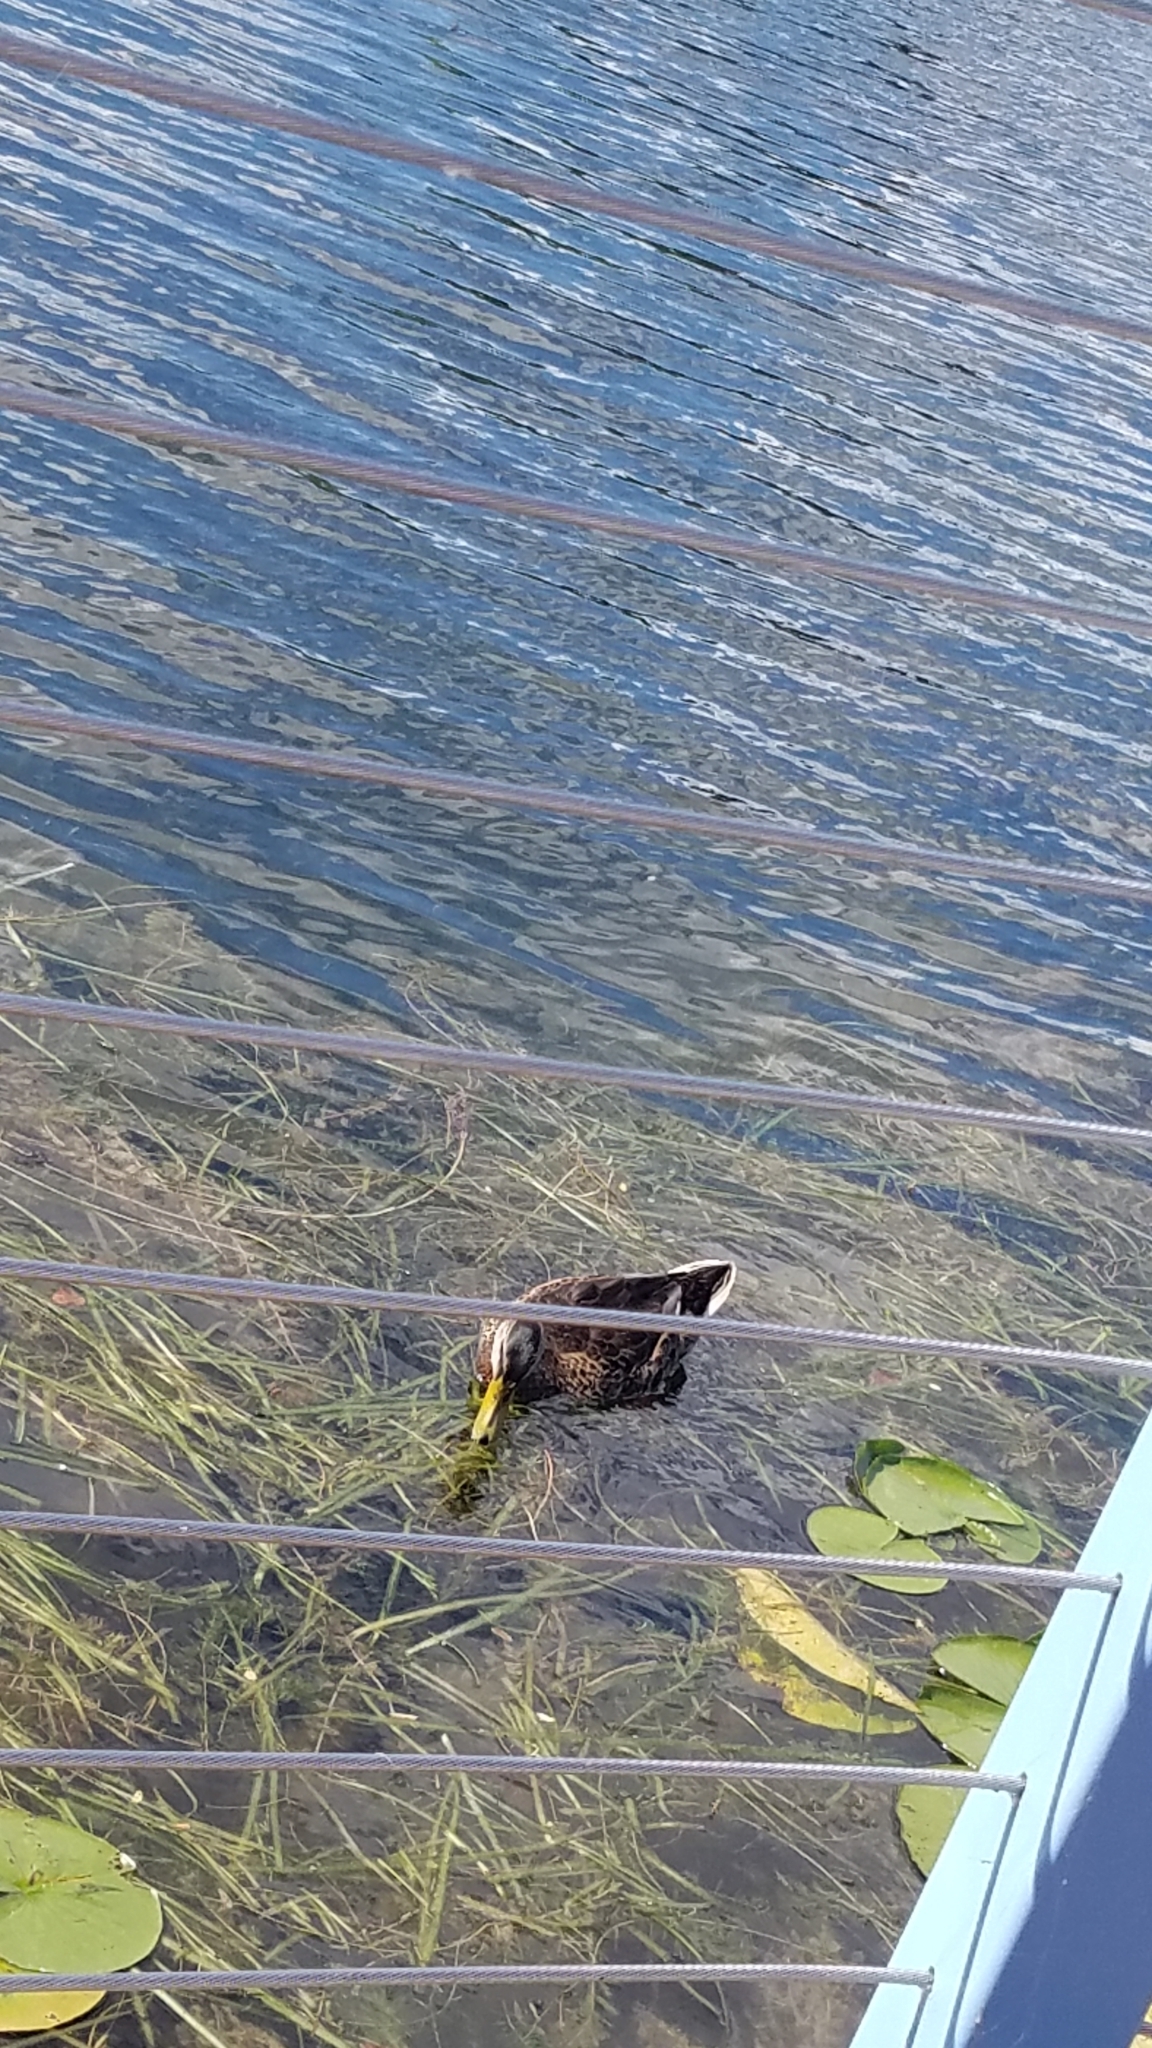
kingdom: Animalia
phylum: Chordata
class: Aves
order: Anseriformes
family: Anatidae
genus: Anas
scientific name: Anas platyrhynchos
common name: Mallard
